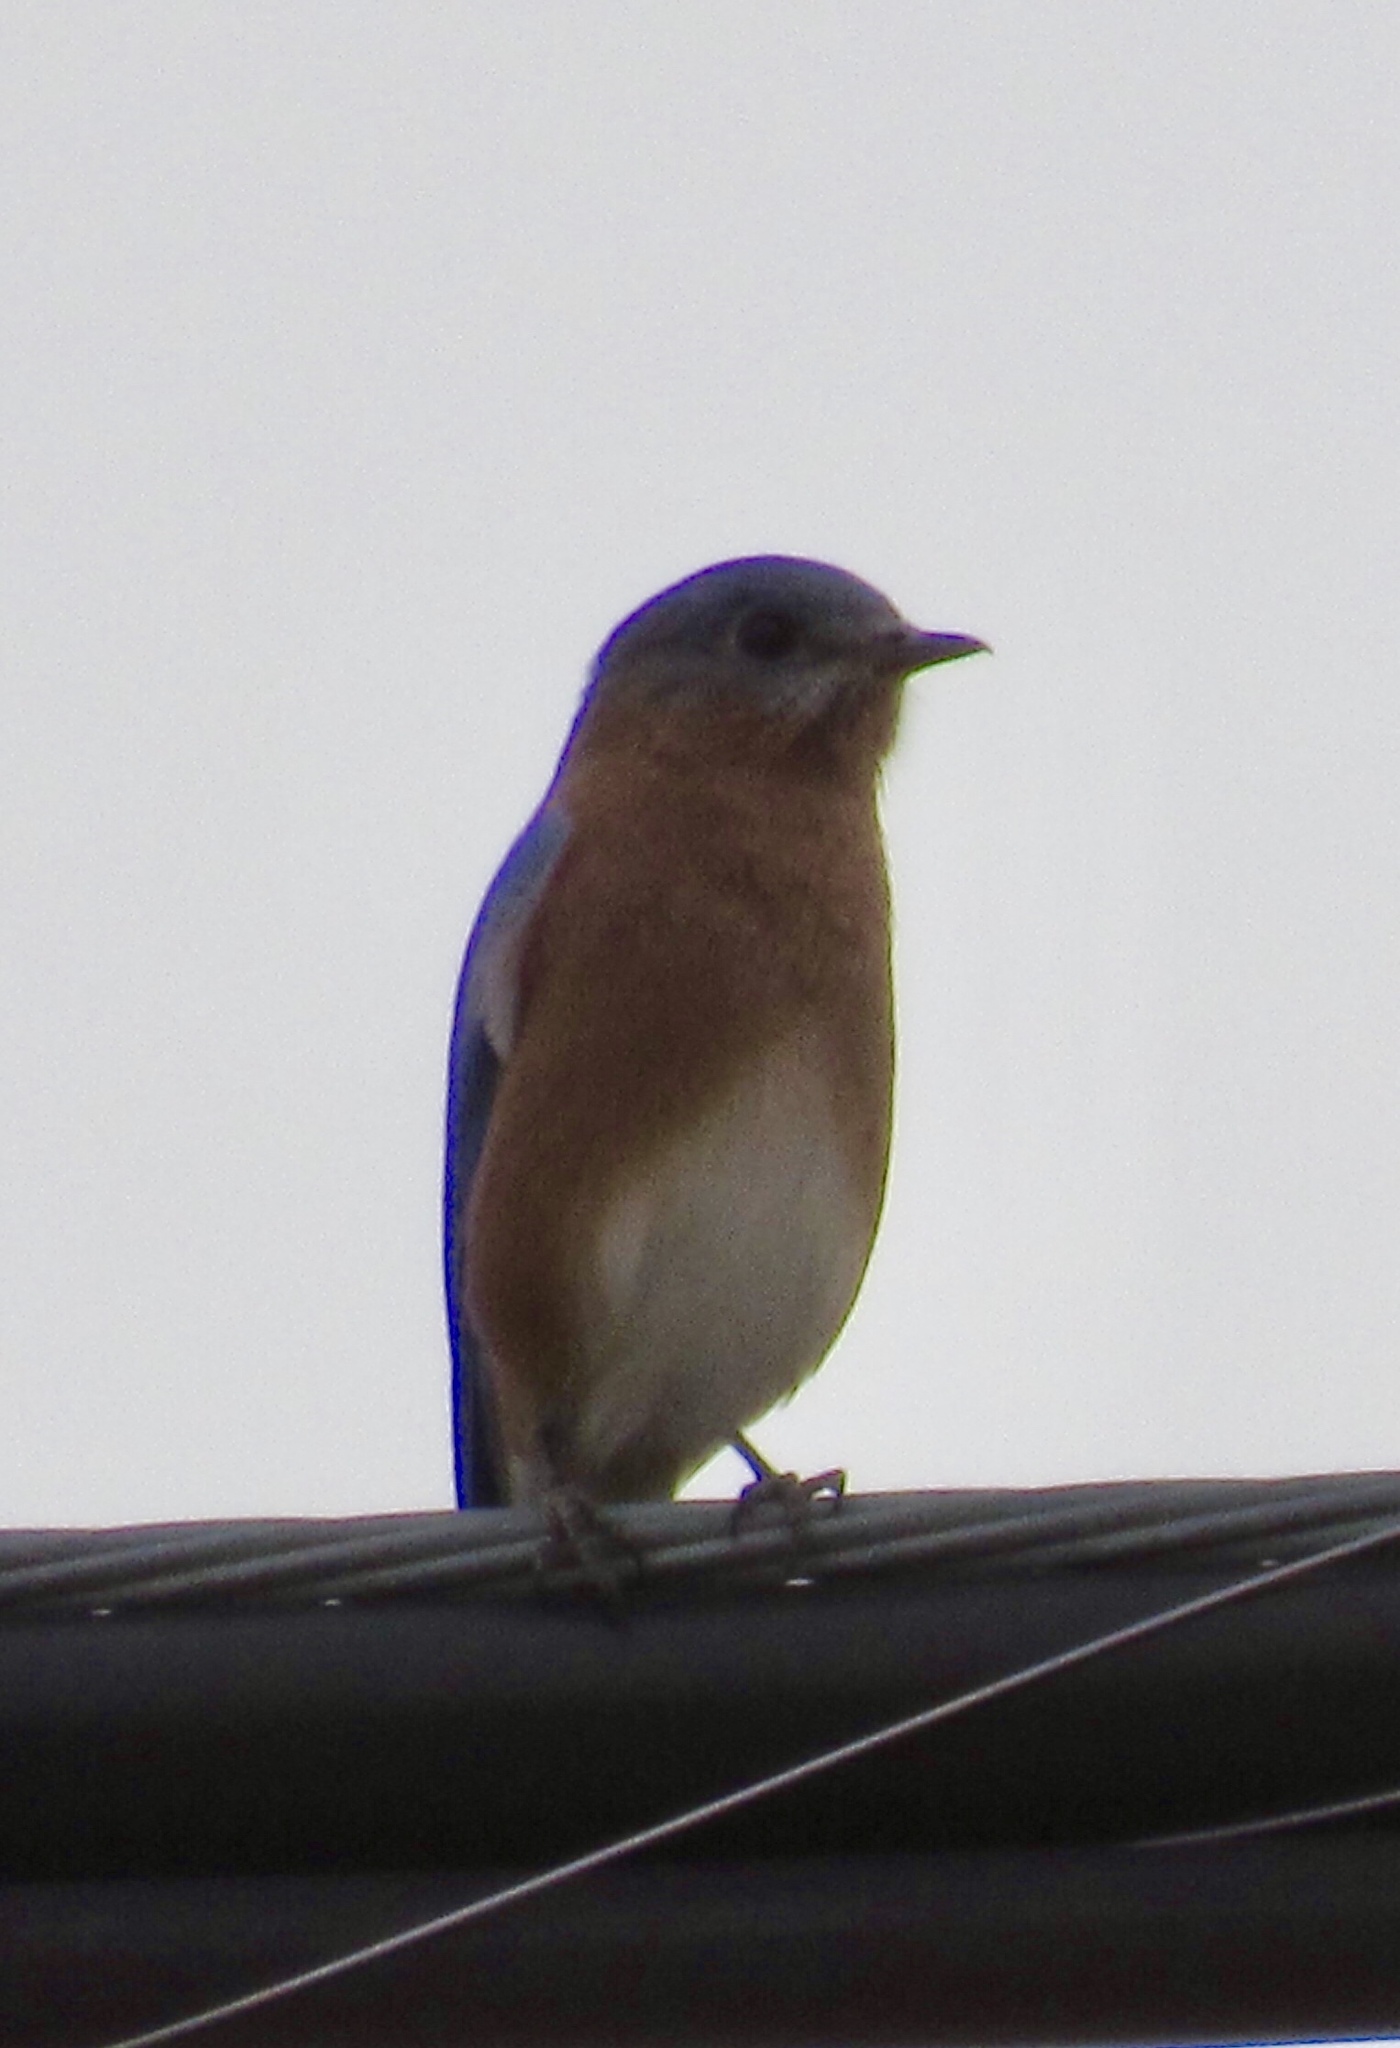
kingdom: Animalia
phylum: Chordata
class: Aves
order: Passeriformes
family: Turdidae
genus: Sialia
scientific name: Sialia sialis
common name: Eastern bluebird
